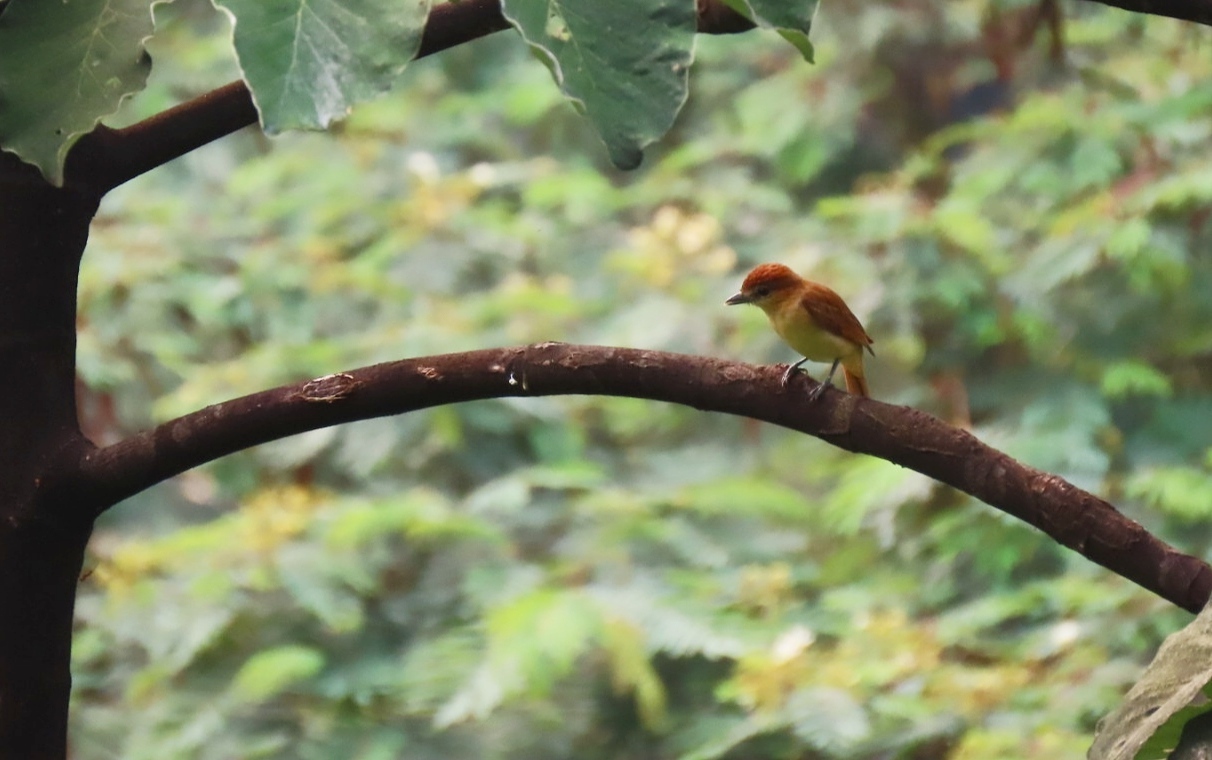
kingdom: Animalia
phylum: Chordata
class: Aves
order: Passeriformes
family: Cotingidae
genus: Pachyramphus
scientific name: Pachyramphus cinnamomeus
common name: Cinnamon becard
